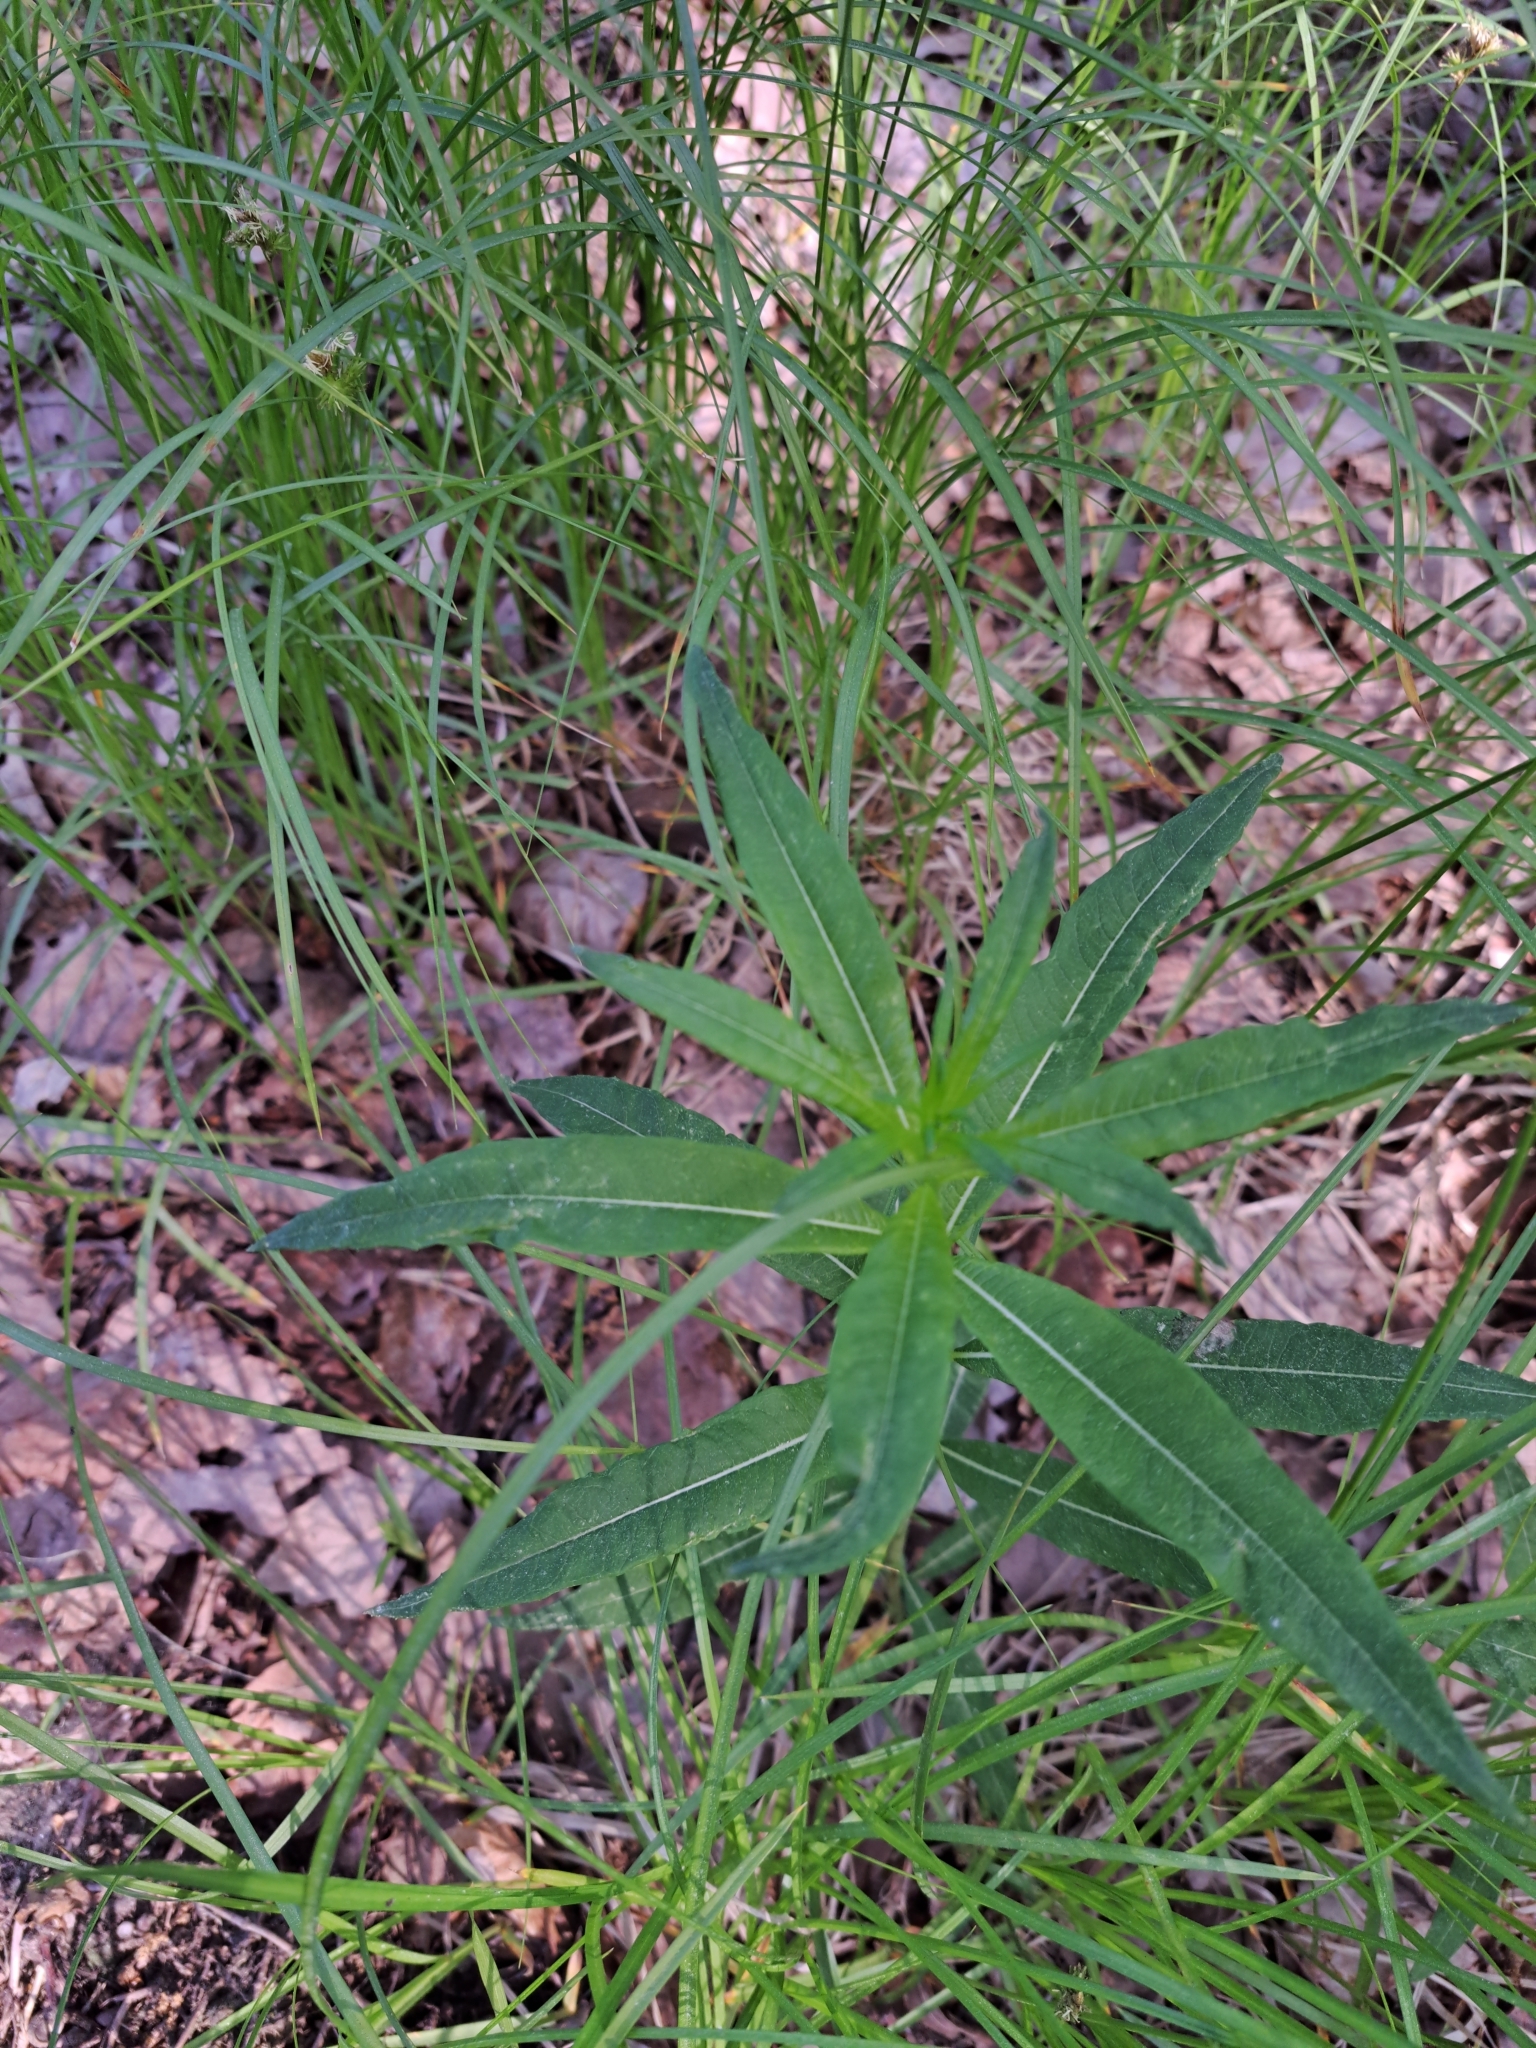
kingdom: Plantae
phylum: Tracheophyta
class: Magnoliopsida
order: Myrtales
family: Onagraceae
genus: Chamaenerion
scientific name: Chamaenerion angustifolium
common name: Fireweed
